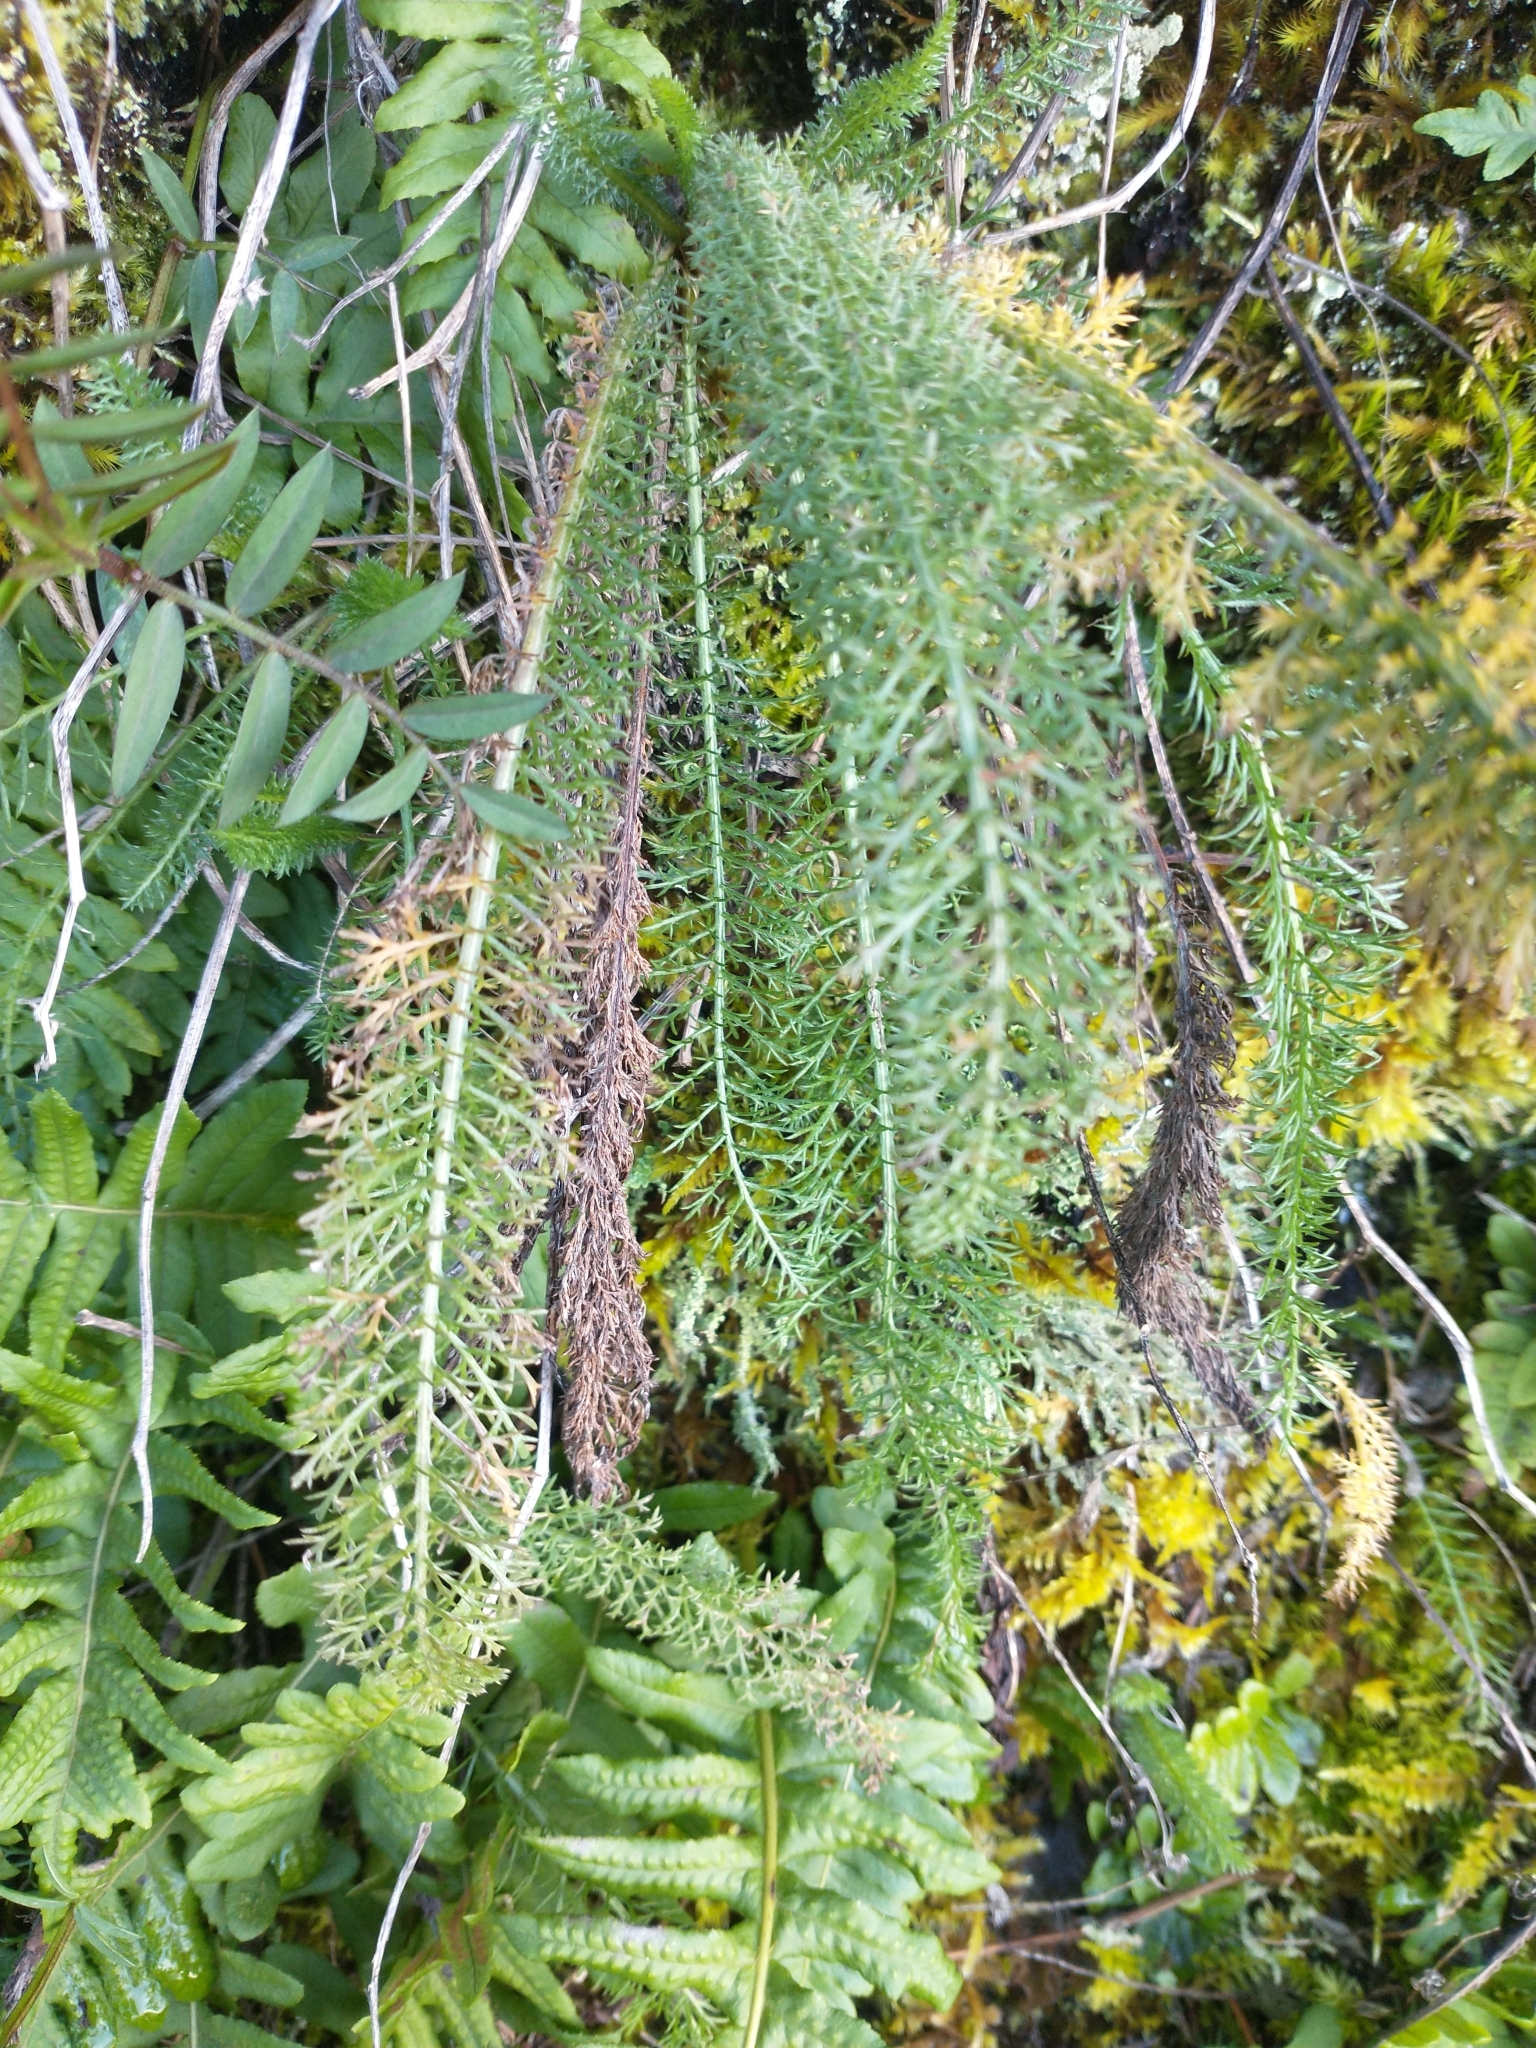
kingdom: Plantae
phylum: Tracheophyta
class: Magnoliopsida
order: Asterales
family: Asteraceae
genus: Achillea
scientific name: Achillea millefolium
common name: Yarrow
